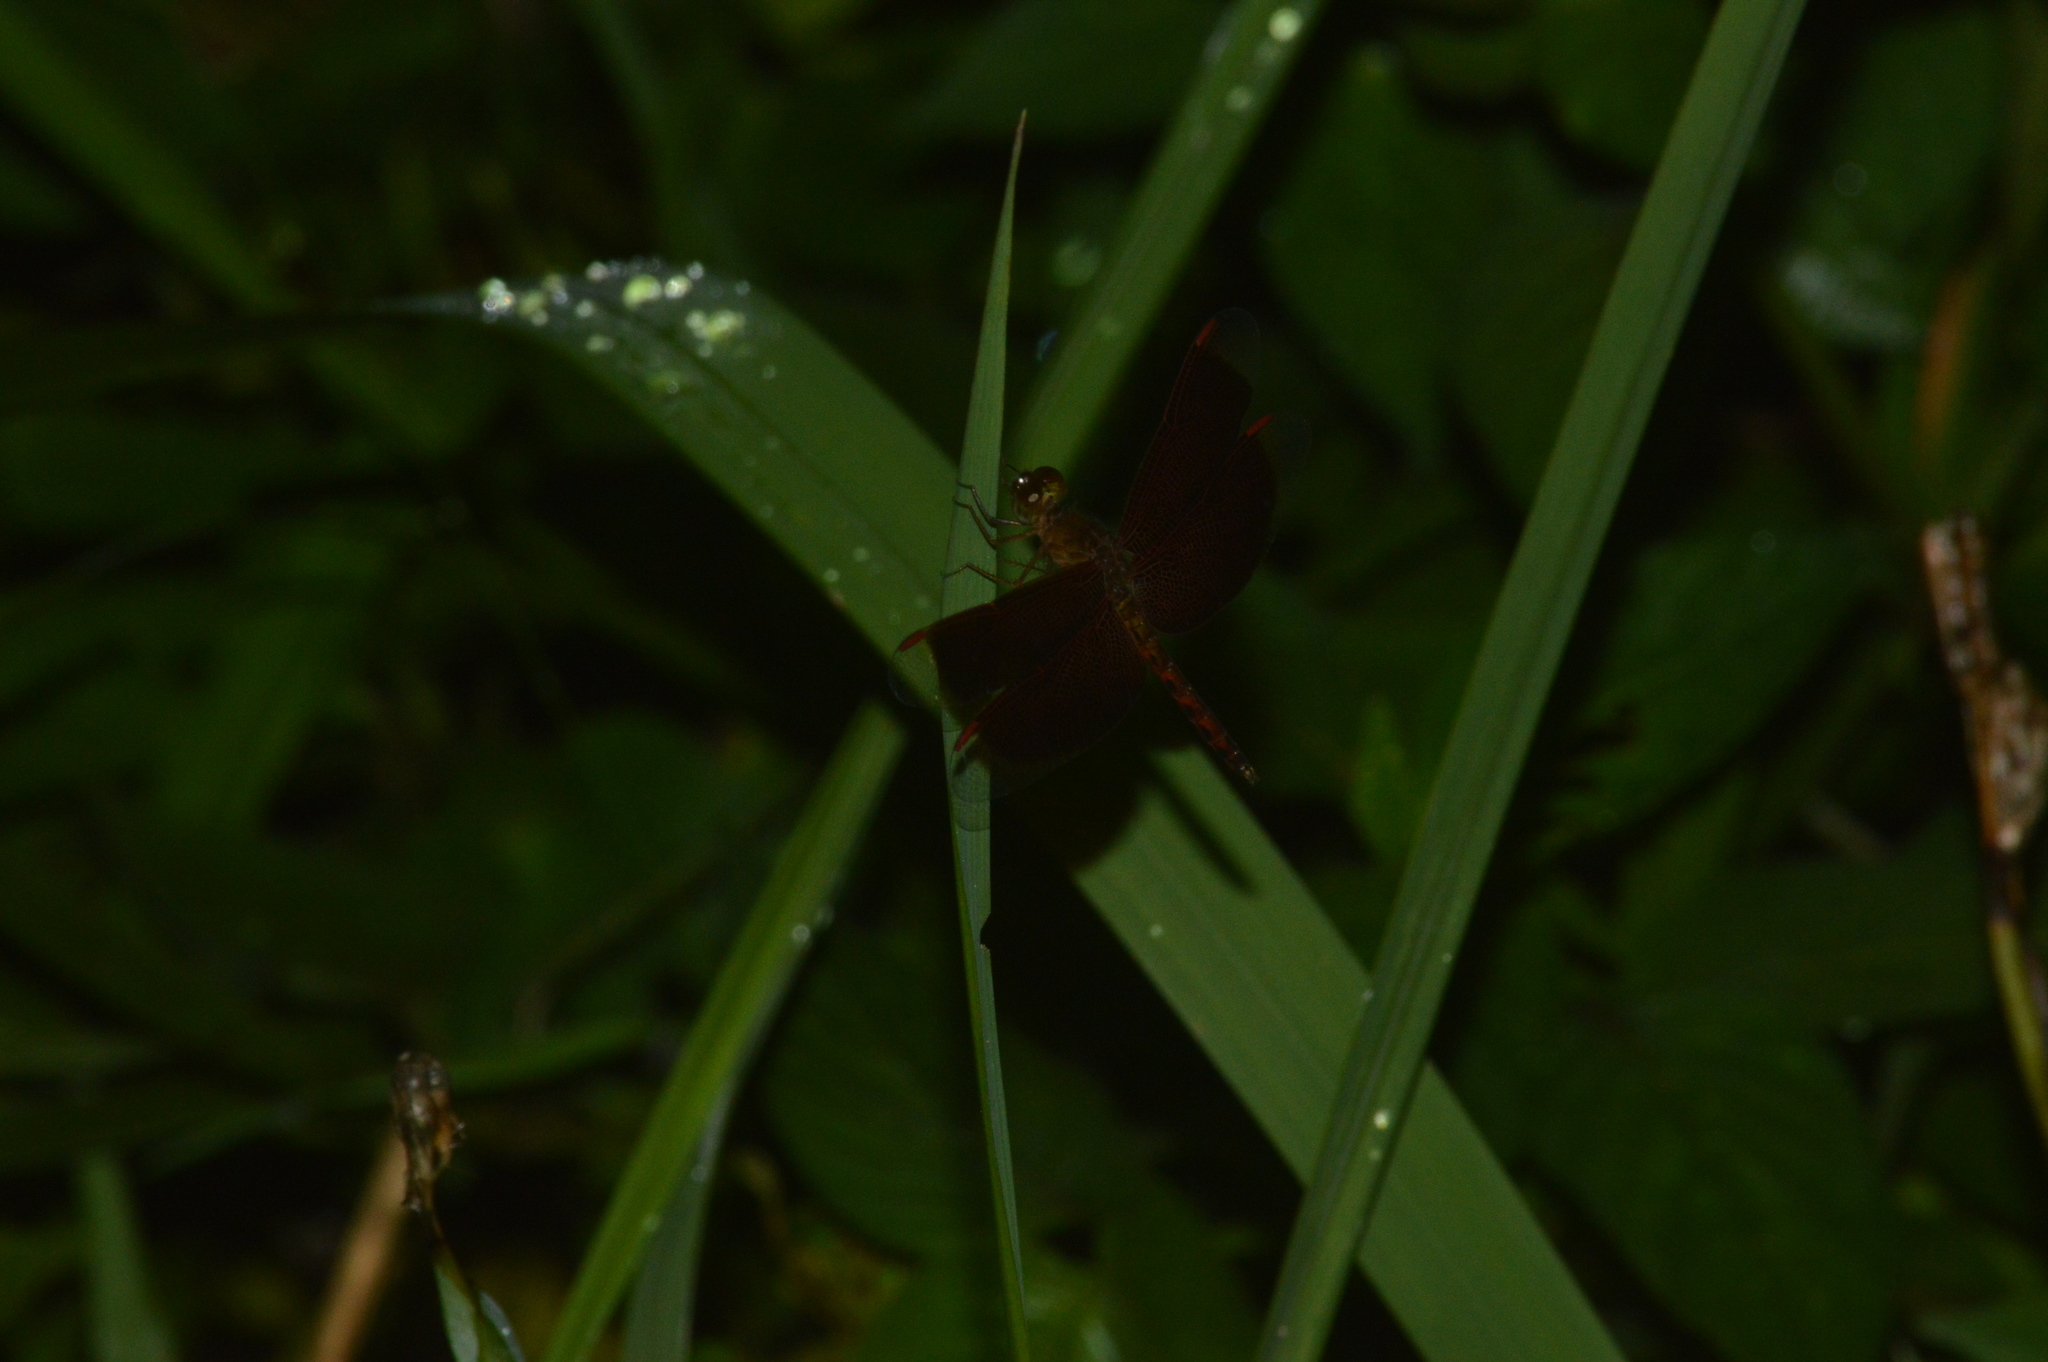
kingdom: Animalia
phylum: Arthropoda
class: Insecta
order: Odonata
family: Libellulidae
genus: Neurothemis
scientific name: Neurothemis fluctuans
